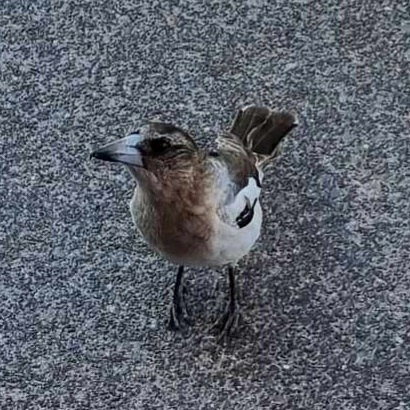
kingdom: Animalia
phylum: Chordata
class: Aves
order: Passeriformes
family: Cracticidae
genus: Cracticus
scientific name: Cracticus nigrogularis
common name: Pied butcherbird
